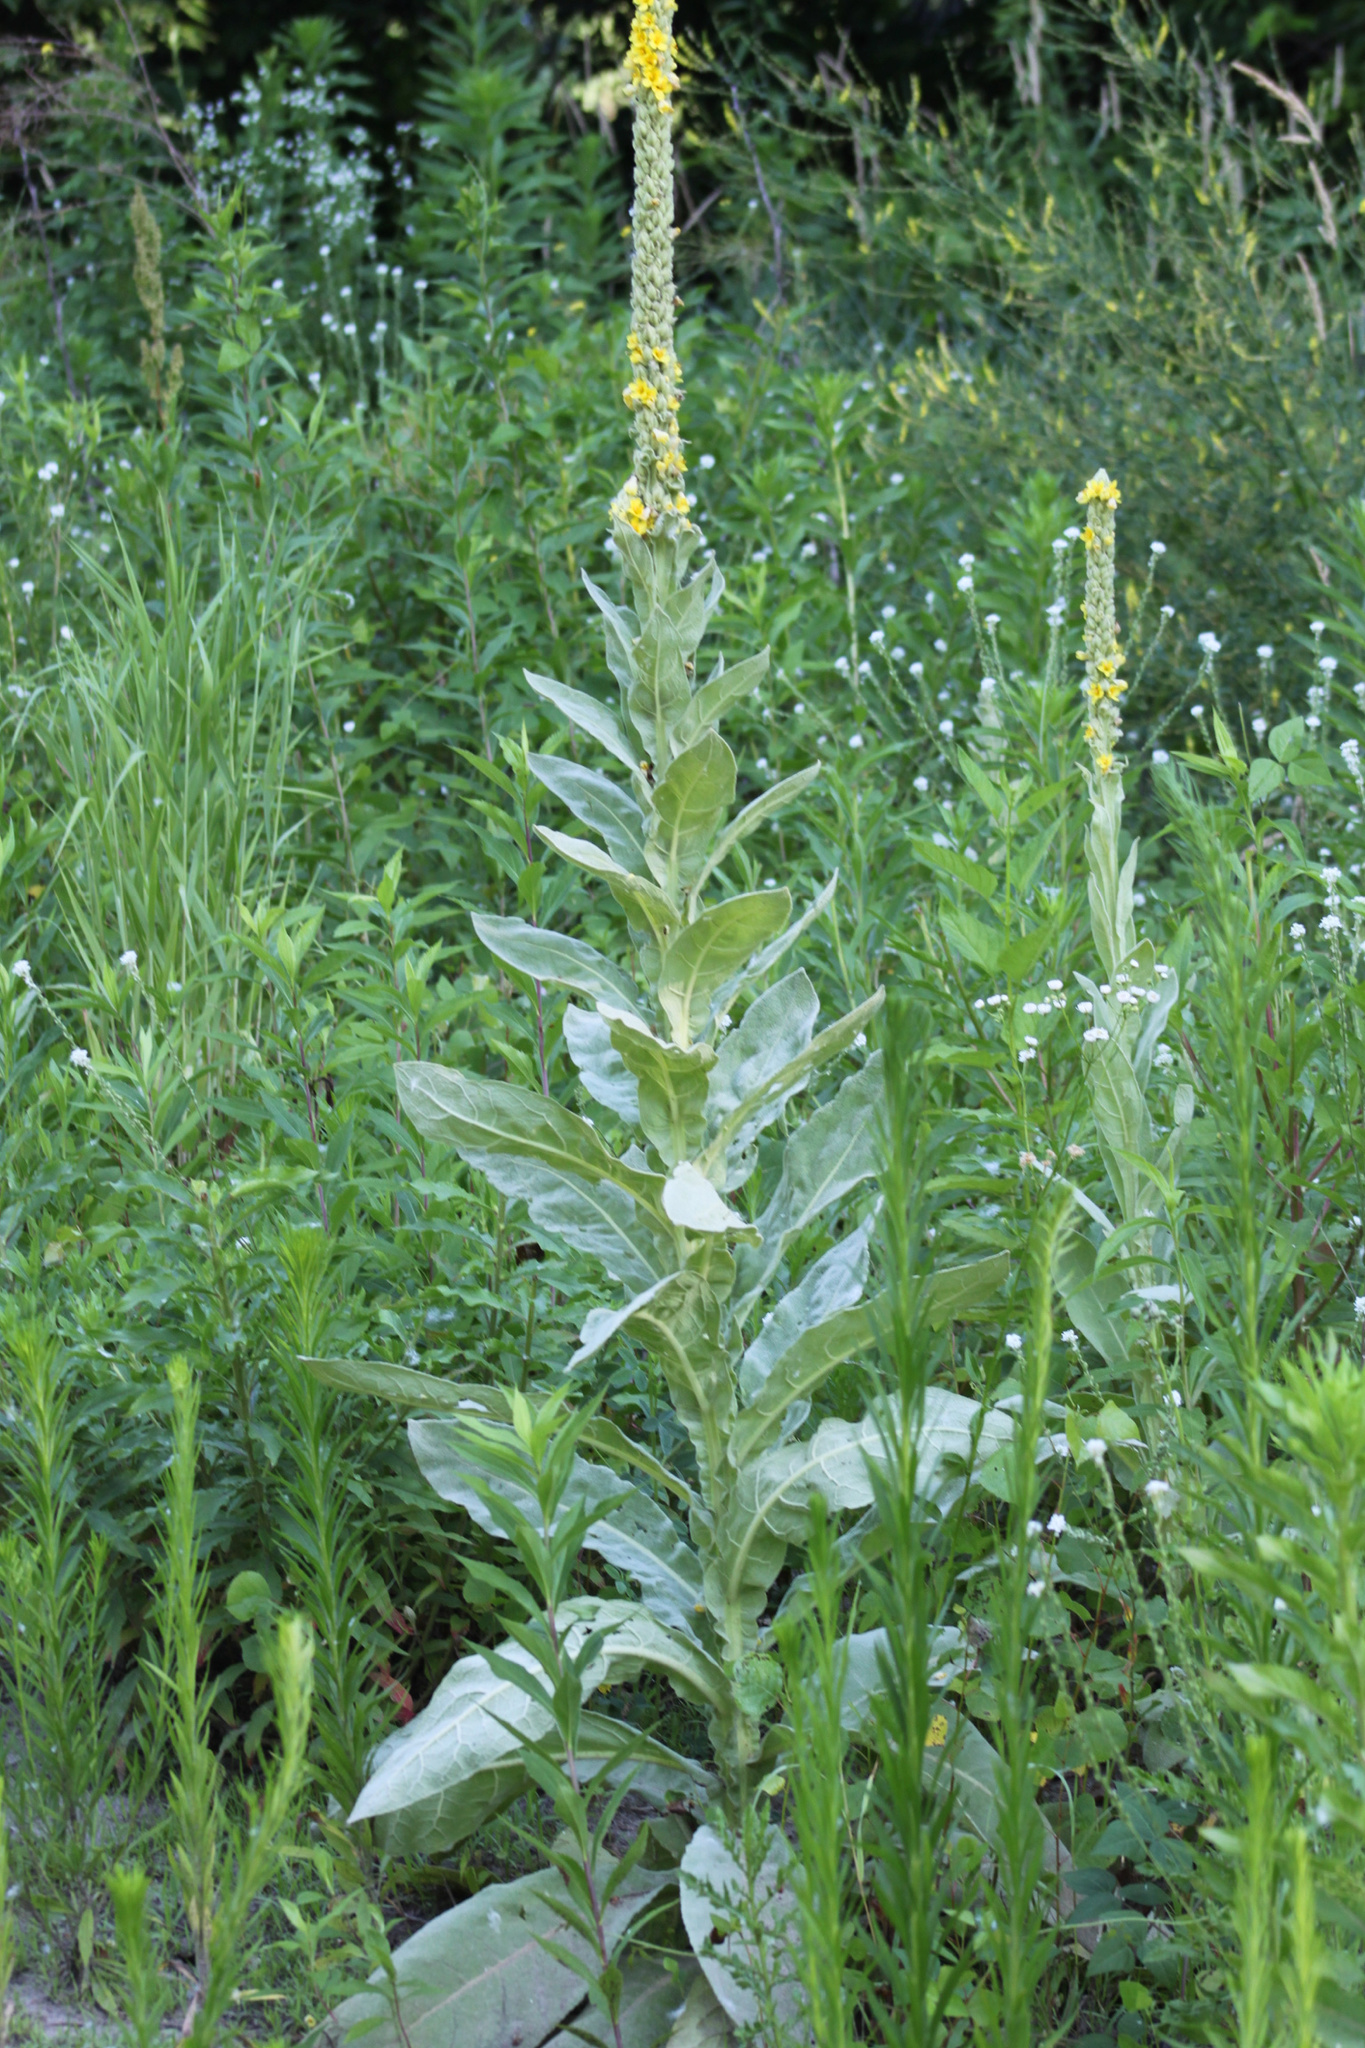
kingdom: Plantae
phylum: Tracheophyta
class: Magnoliopsida
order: Lamiales
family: Scrophulariaceae
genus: Verbascum
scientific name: Verbascum thapsus
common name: Common mullein
